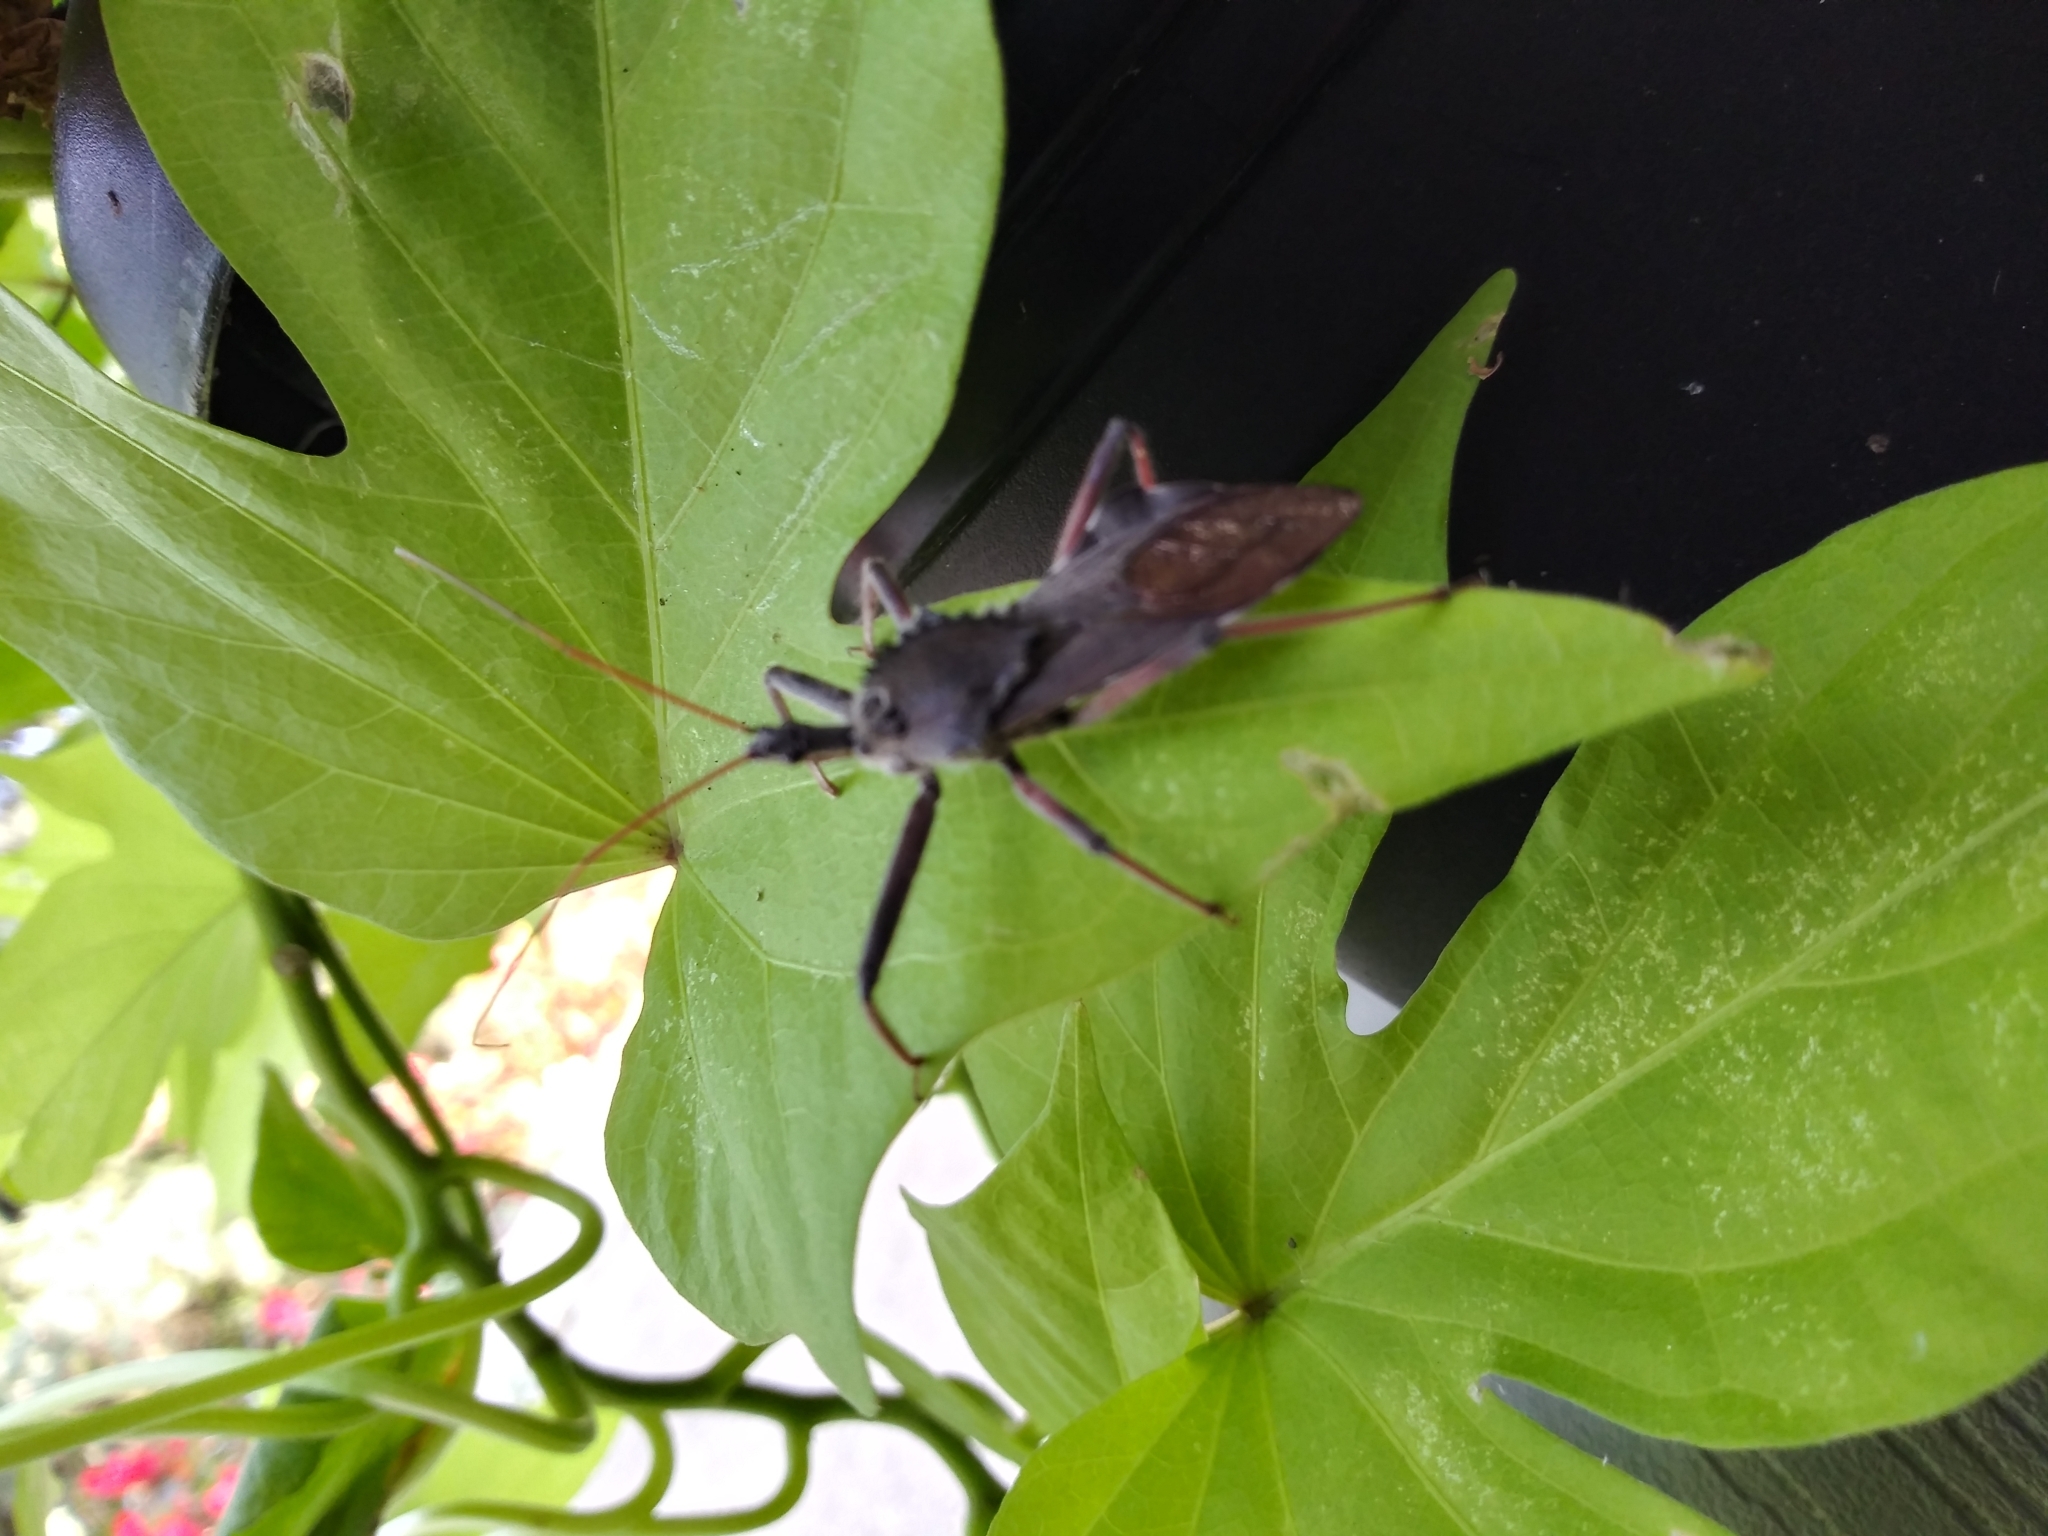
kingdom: Animalia
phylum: Arthropoda
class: Insecta
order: Hemiptera
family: Reduviidae
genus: Arilus
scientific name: Arilus cristatus
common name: North american wheel bug
